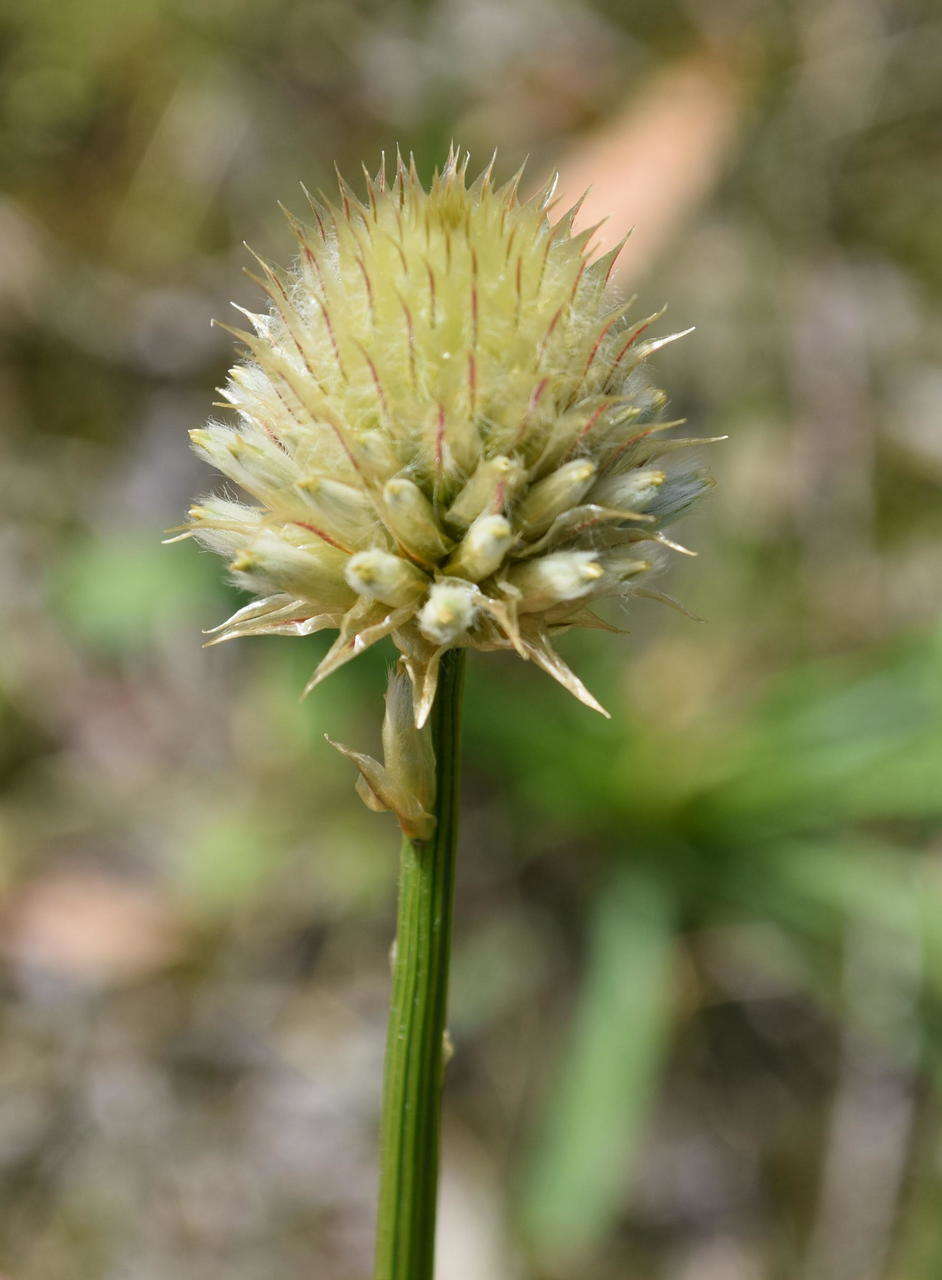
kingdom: Plantae
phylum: Tracheophyta
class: Magnoliopsida
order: Caryophyllales
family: Amaranthaceae
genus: Ptilotus
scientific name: Ptilotus macrocephalus
